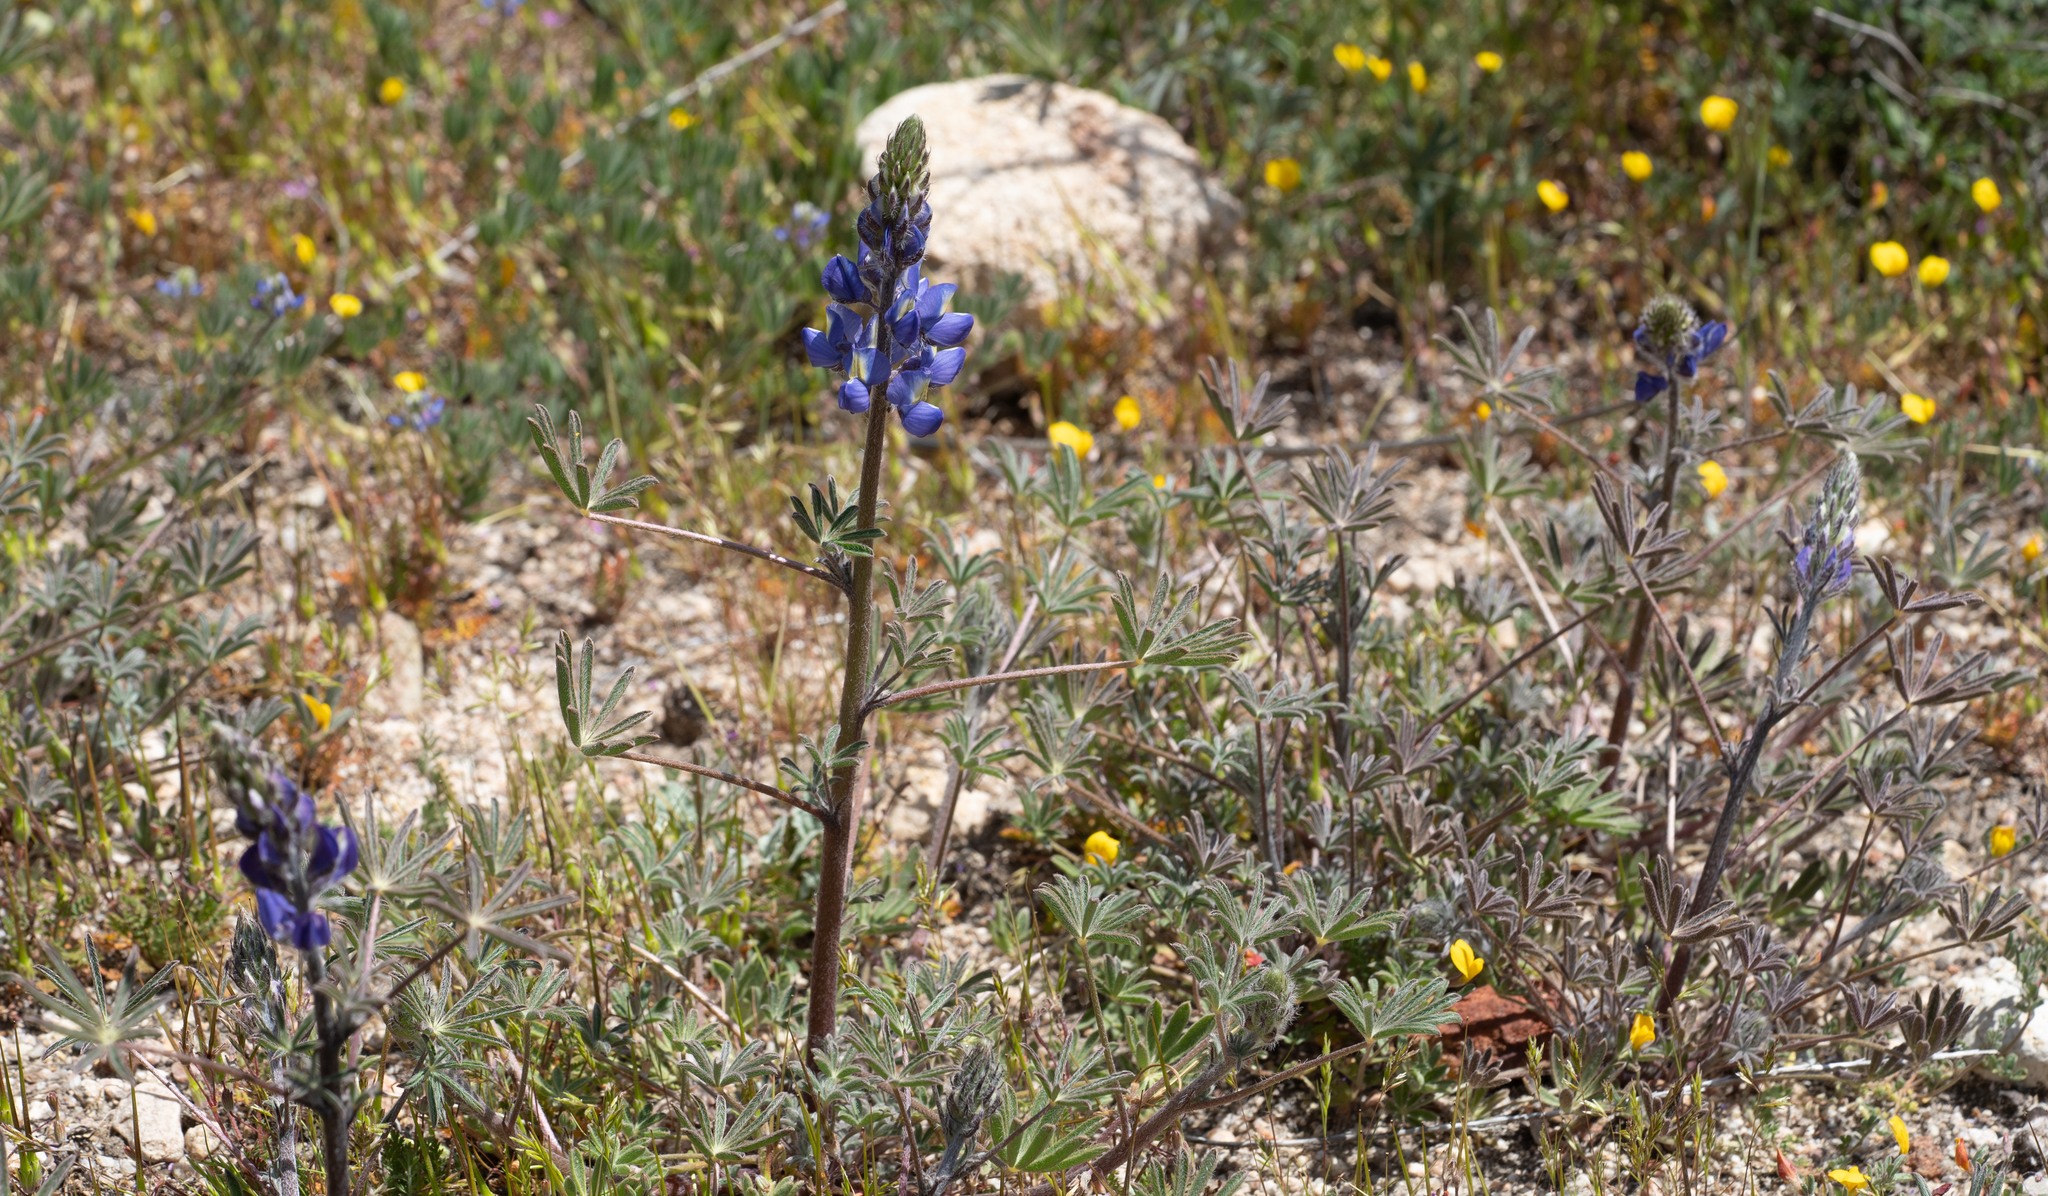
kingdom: Plantae
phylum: Tracheophyta
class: Magnoliopsida
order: Fabales
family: Fabaceae
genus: Lupinus
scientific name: Lupinus sparsiflorus
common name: Coulter's lupine
